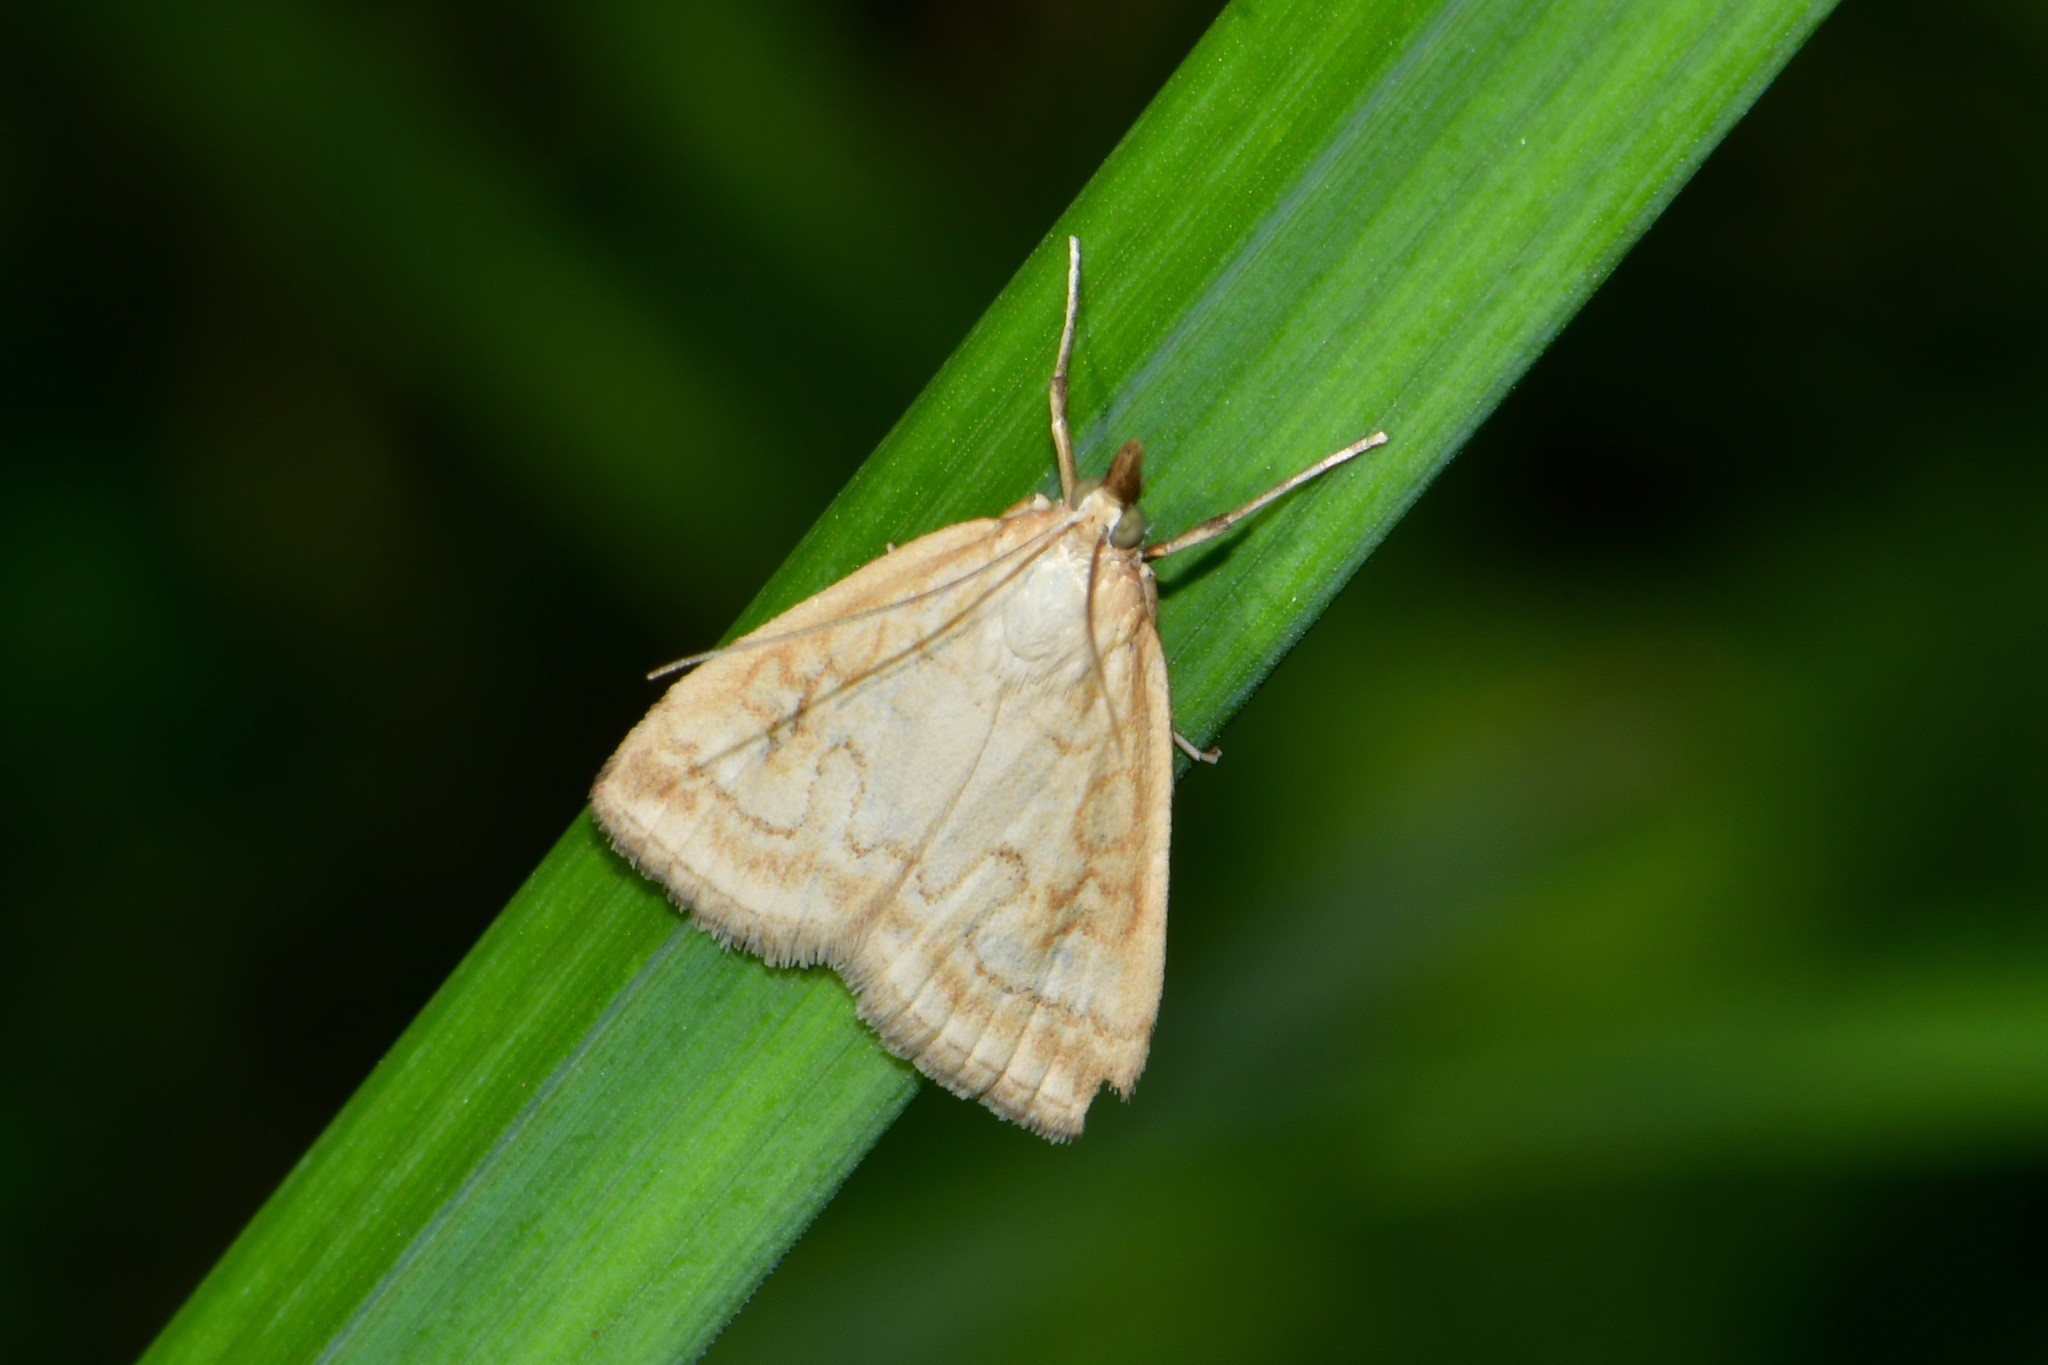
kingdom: Animalia
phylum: Arthropoda
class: Insecta
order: Lepidoptera
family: Crambidae
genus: Udea
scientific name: Udea lutealis
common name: Pale straw pearl
